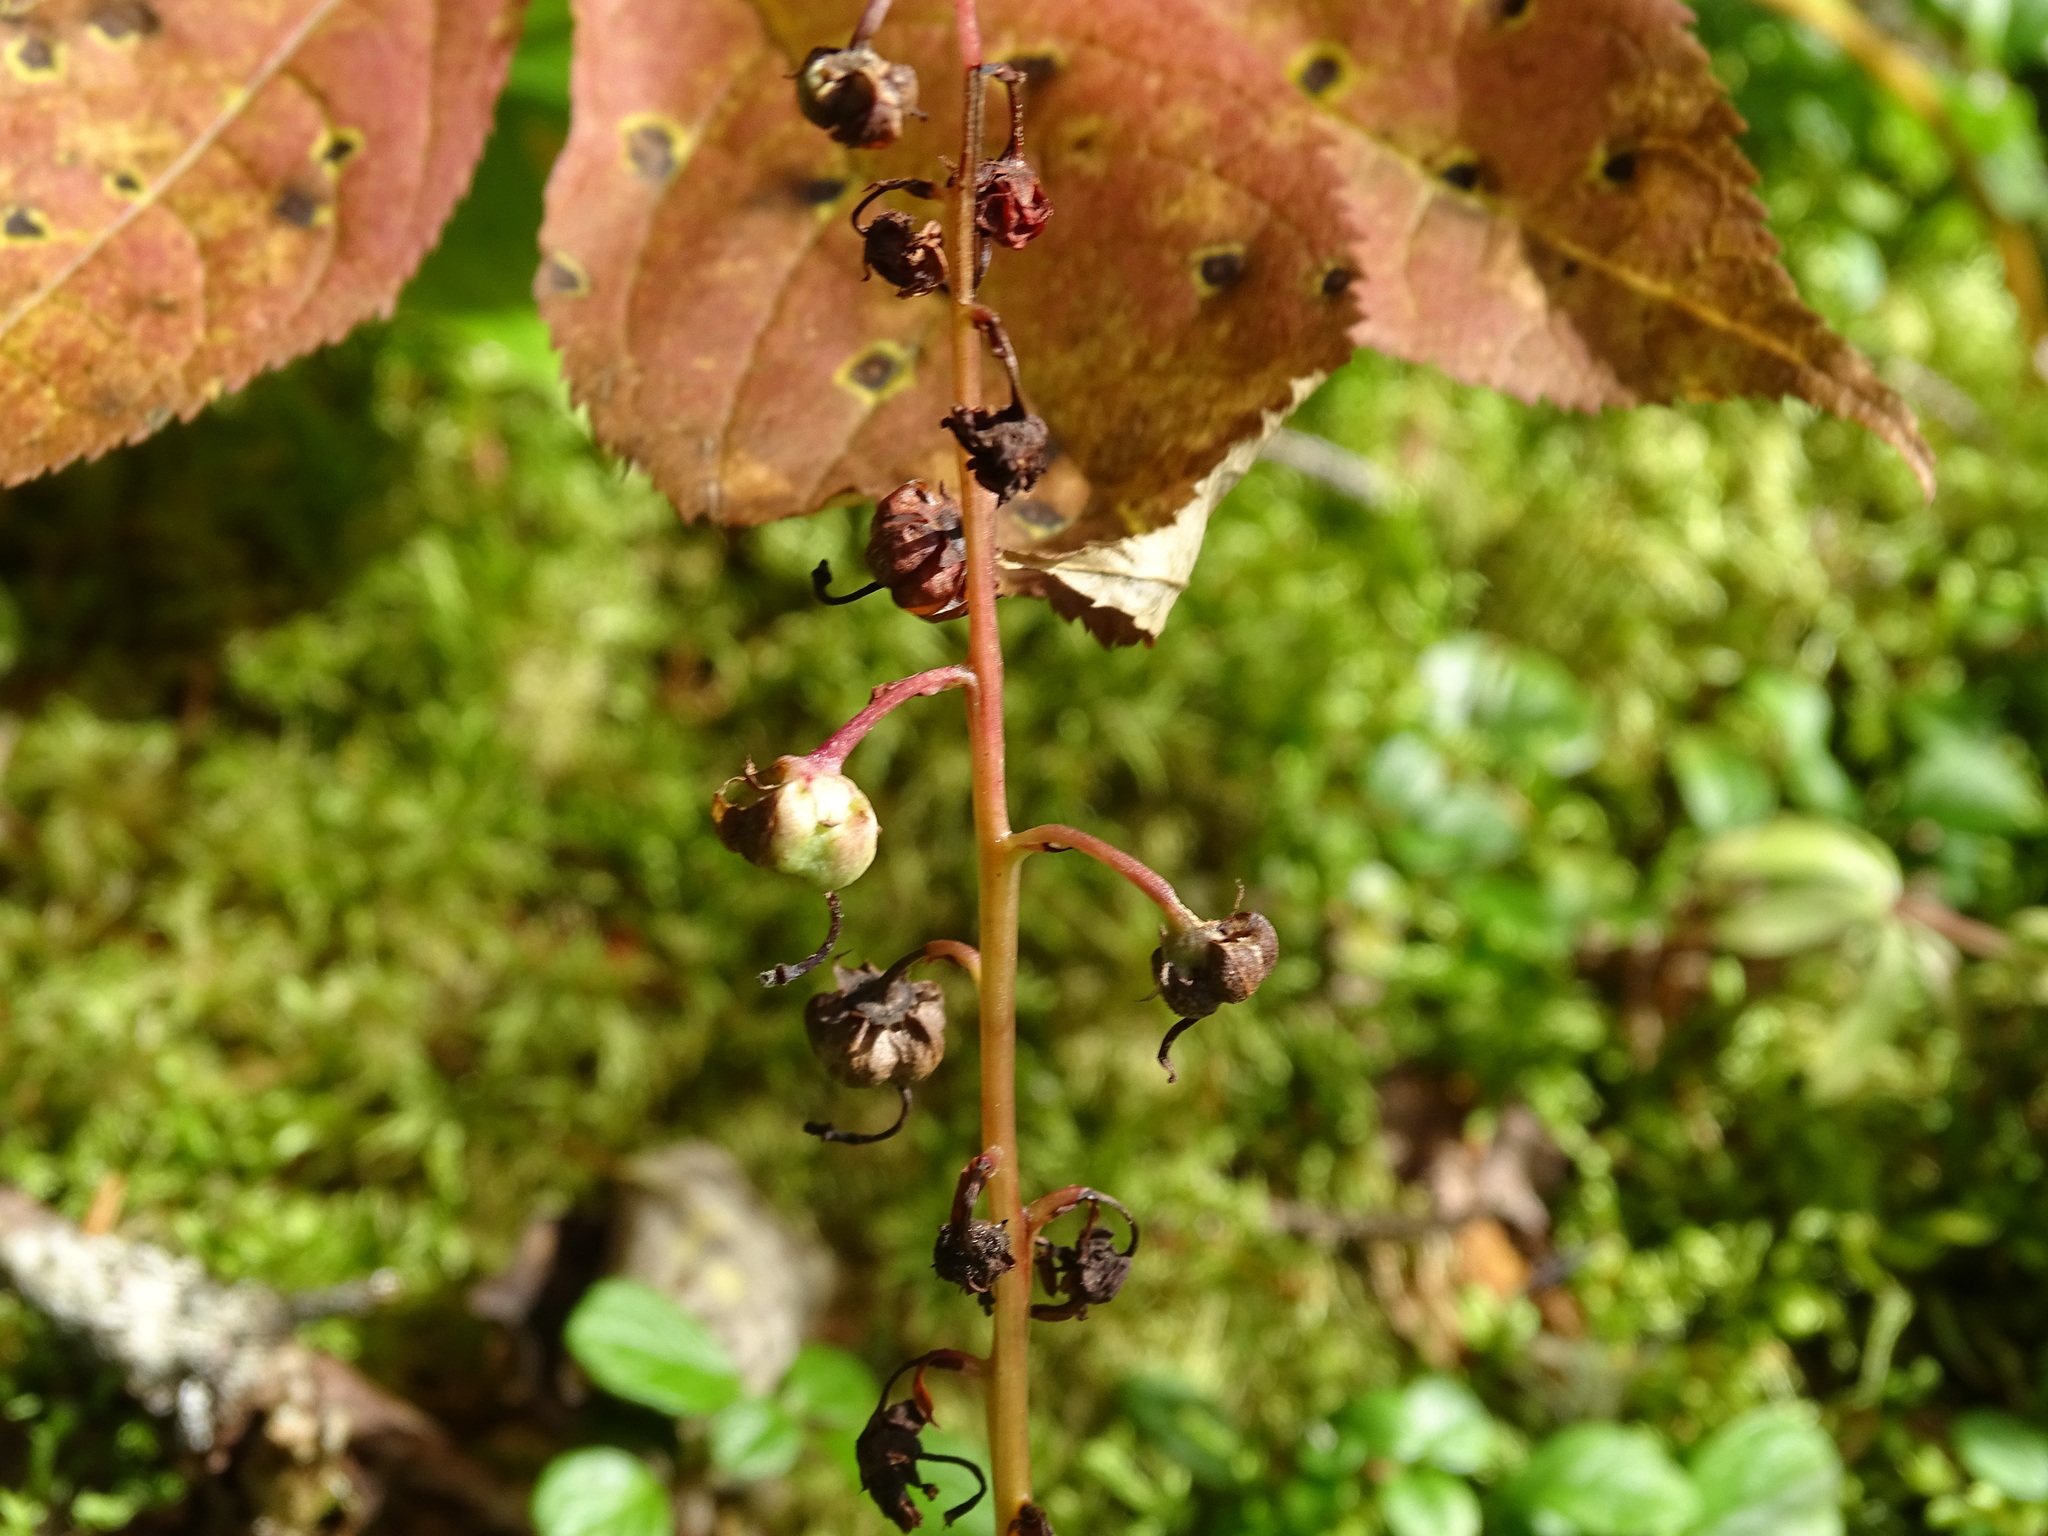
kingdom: Plantae
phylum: Tracheophyta
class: Magnoliopsida
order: Ericales
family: Ericaceae
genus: Pyrola
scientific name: Pyrola asarifolia
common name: Bog wintergreen
